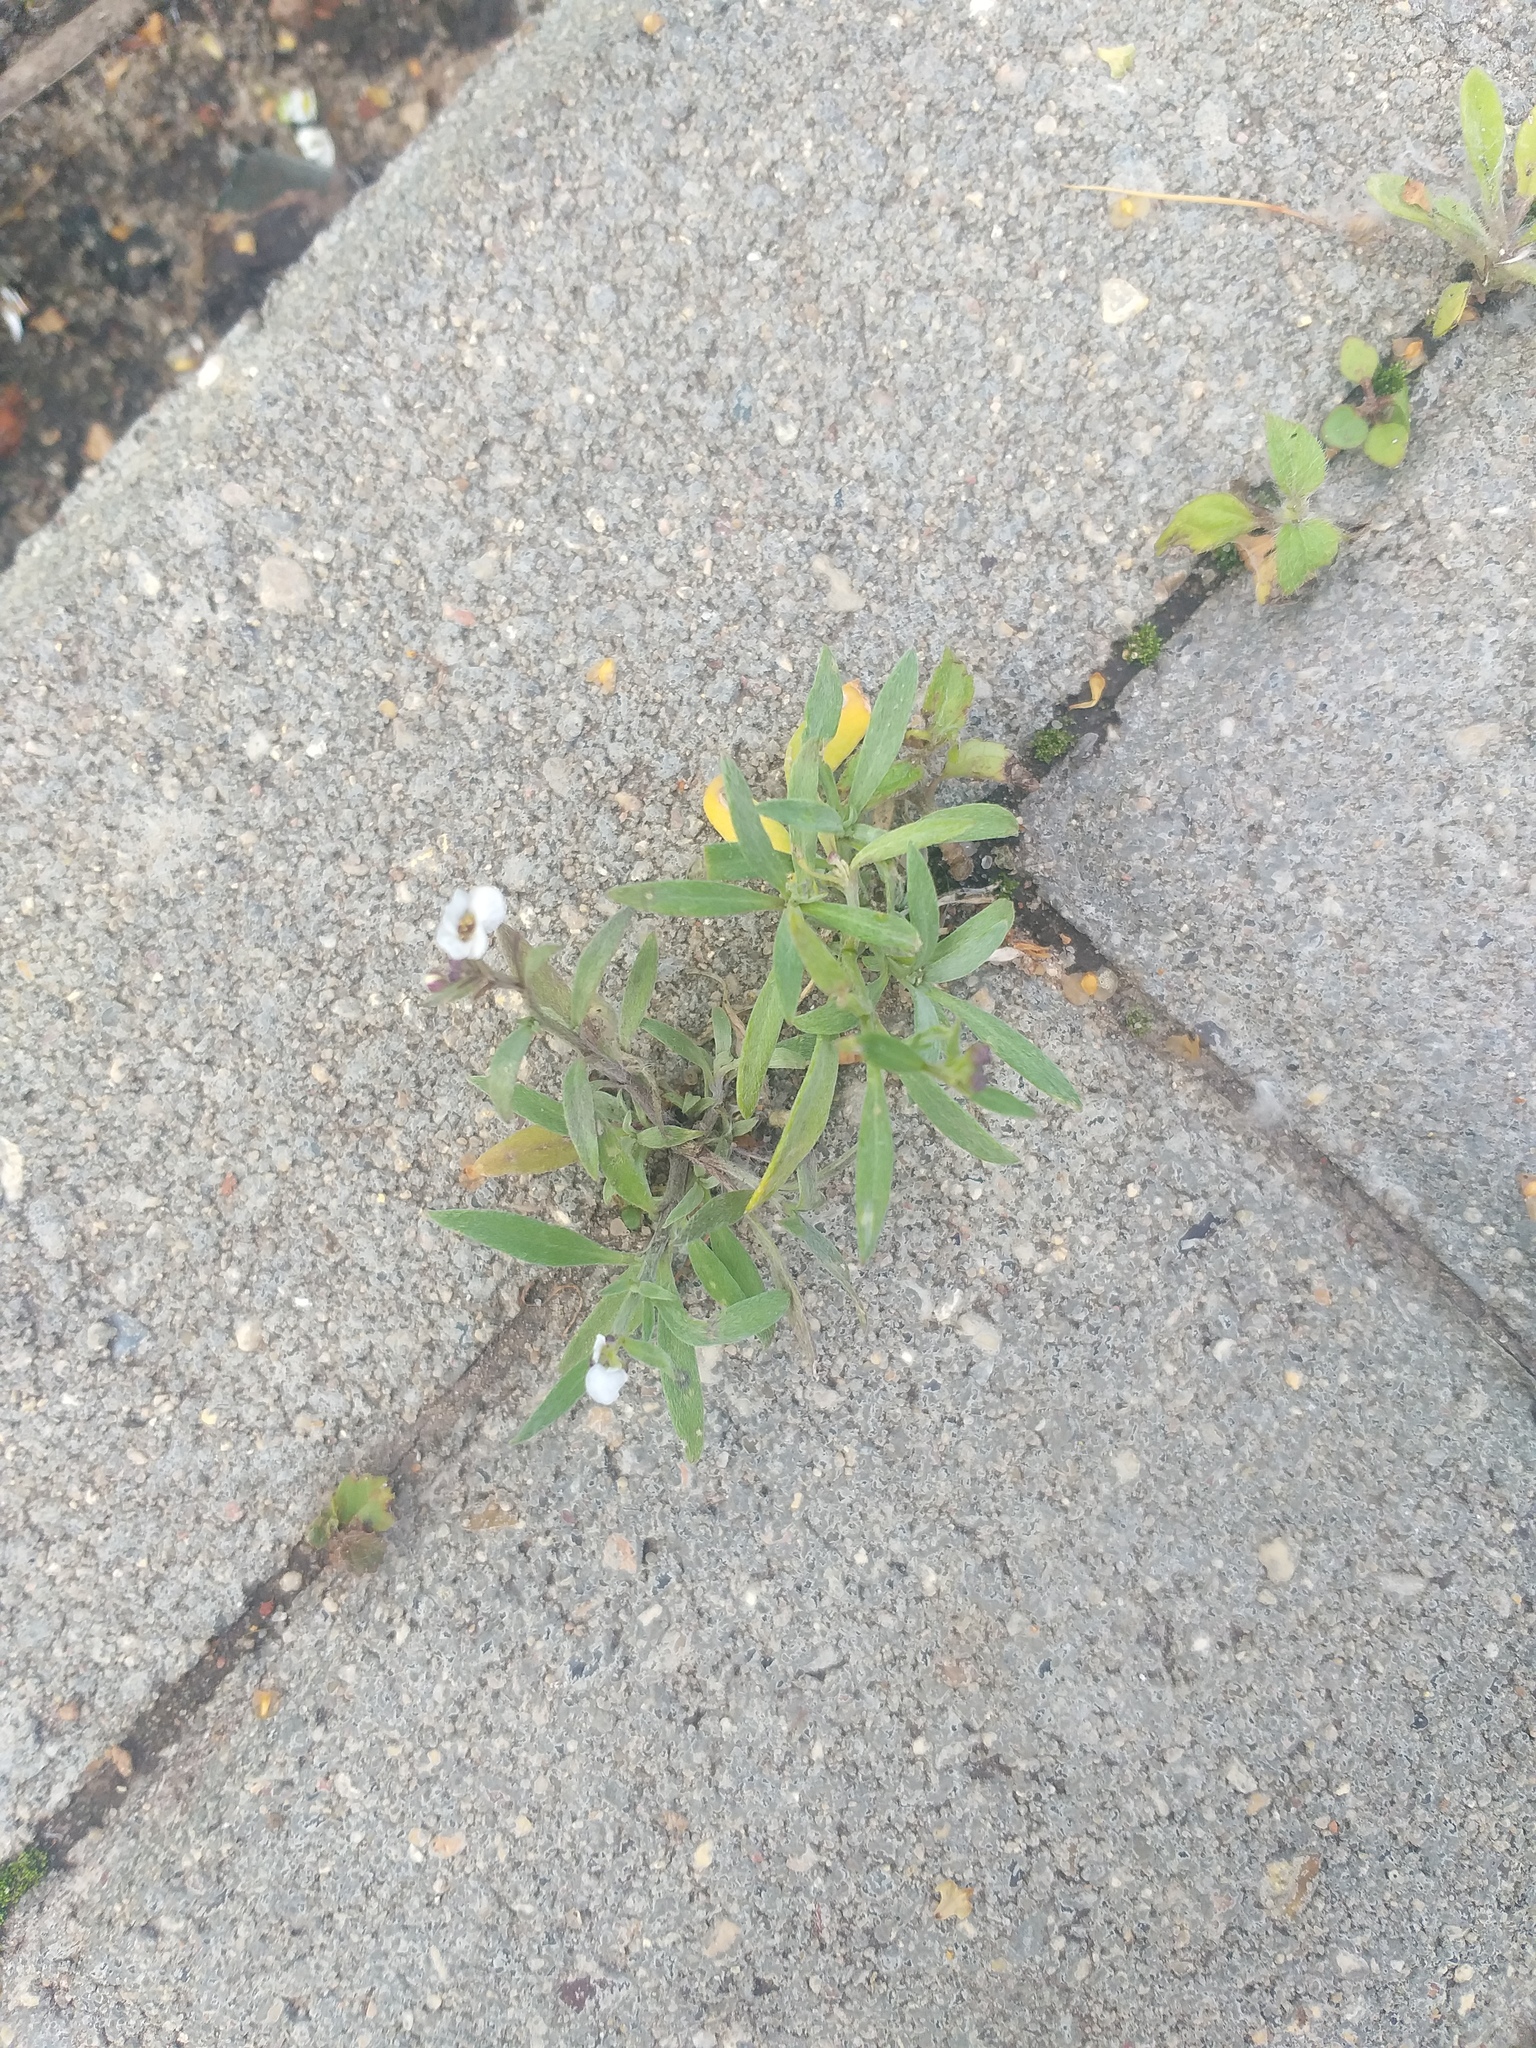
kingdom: Plantae
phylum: Tracheophyta
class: Magnoliopsida
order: Brassicales
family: Brassicaceae
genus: Lobularia
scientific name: Lobularia maritima
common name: Sweet alison
